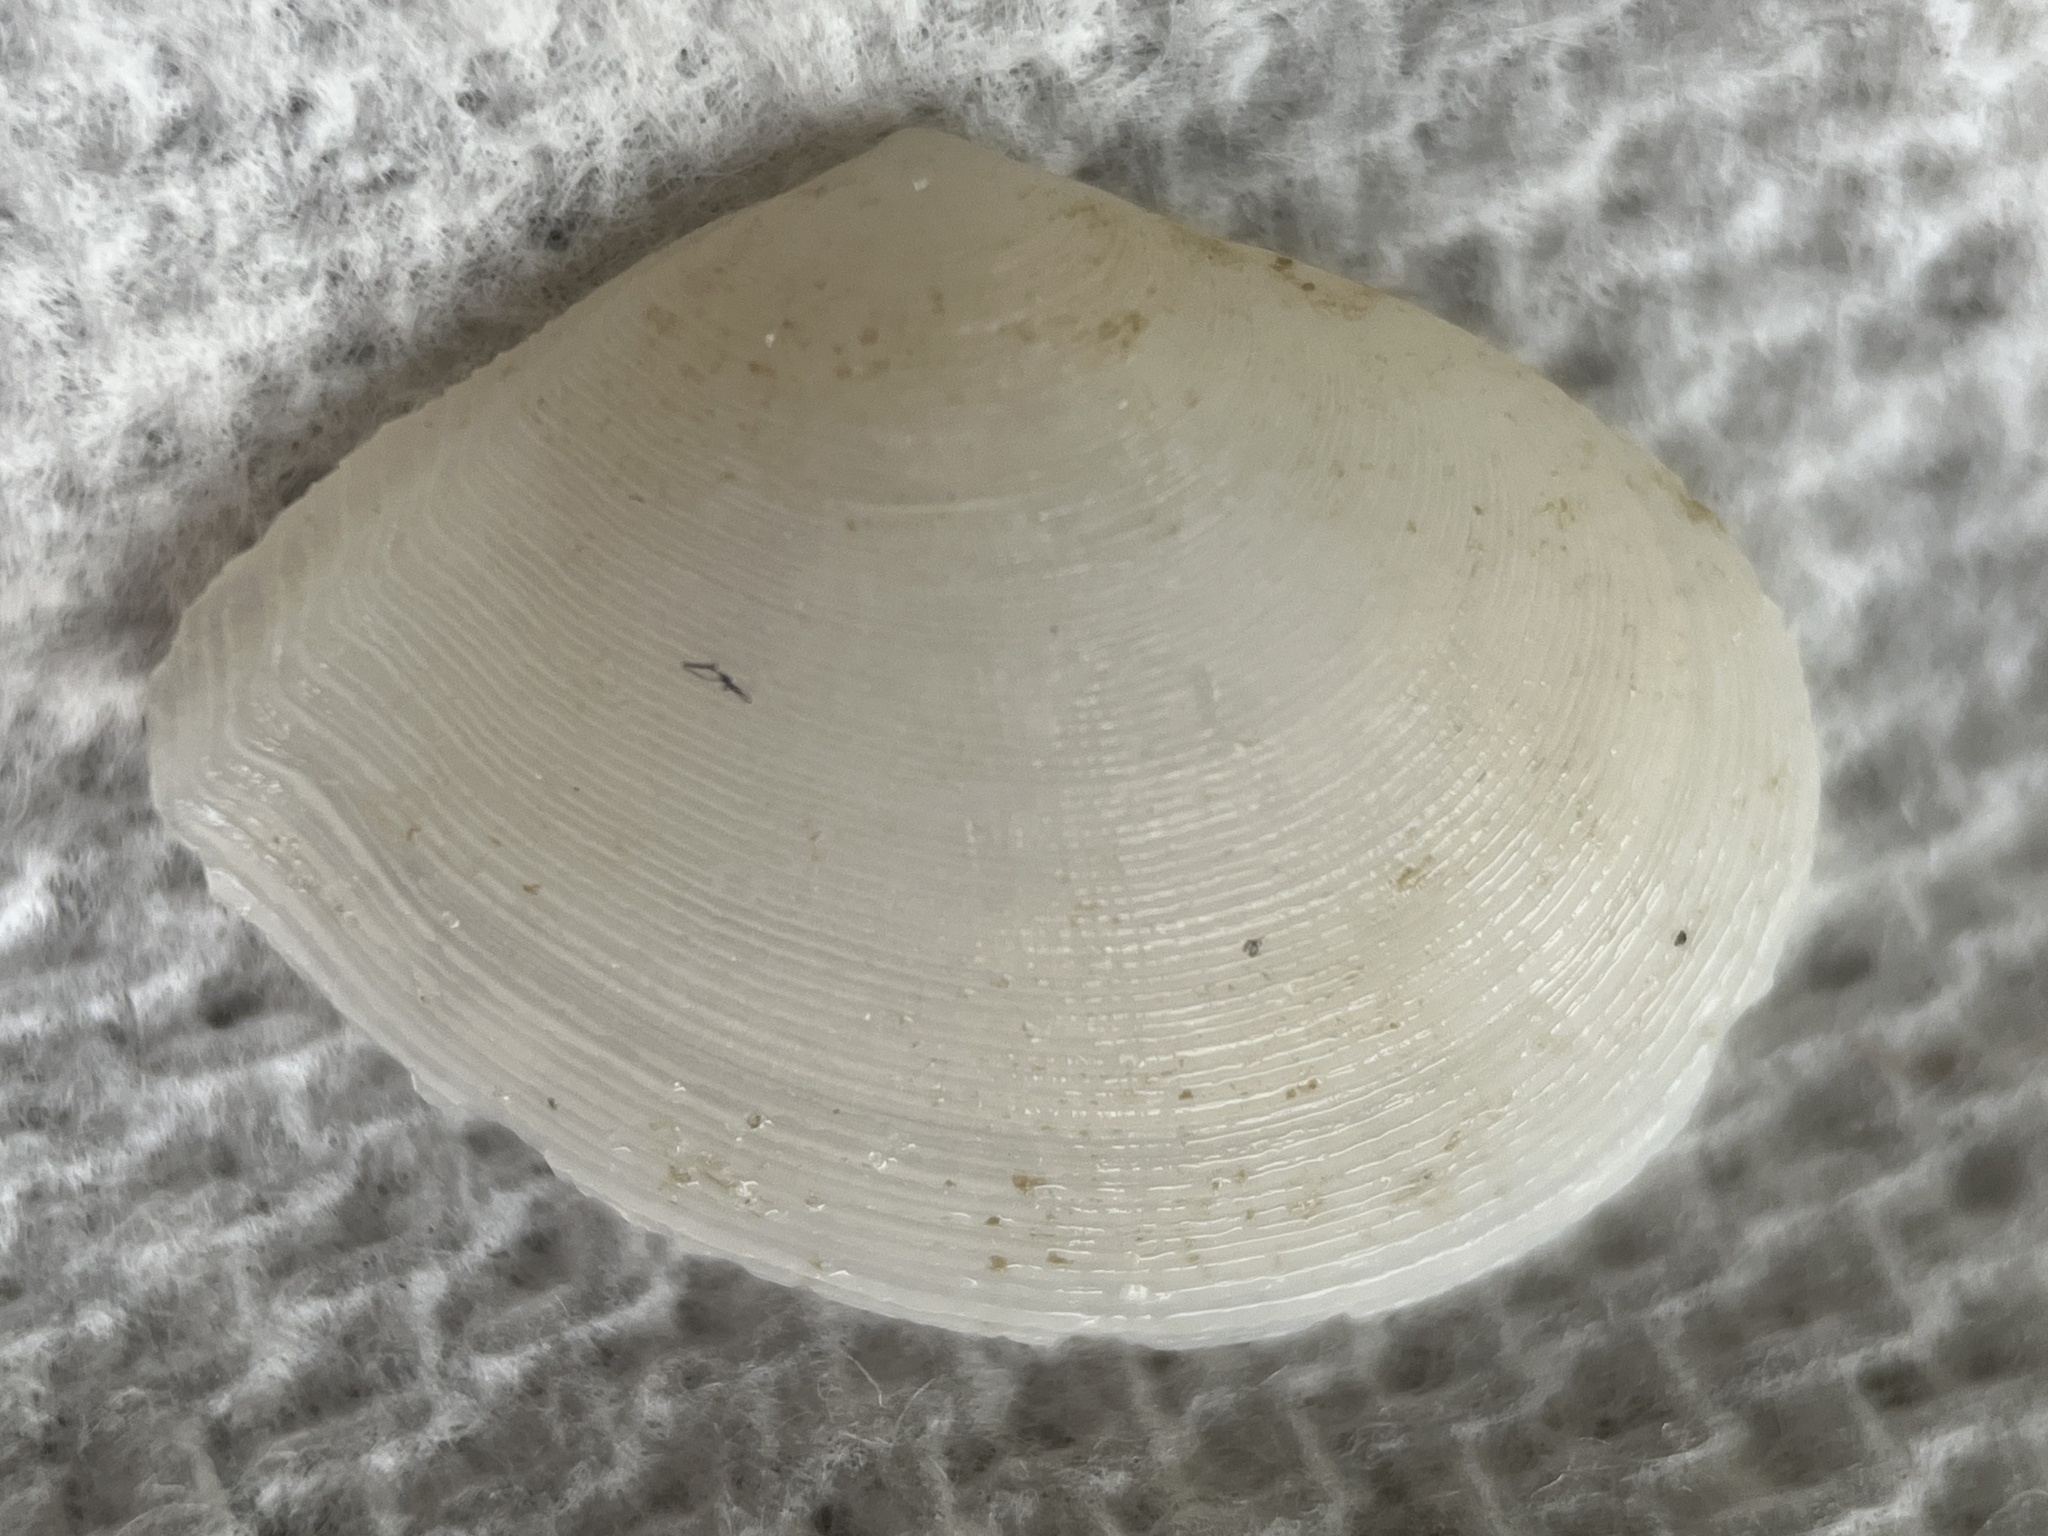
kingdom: Animalia
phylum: Mollusca
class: Bivalvia
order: Cardiida
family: Tellinidae
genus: Serratina
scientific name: Serratina aequistriata
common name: Striate tellin
